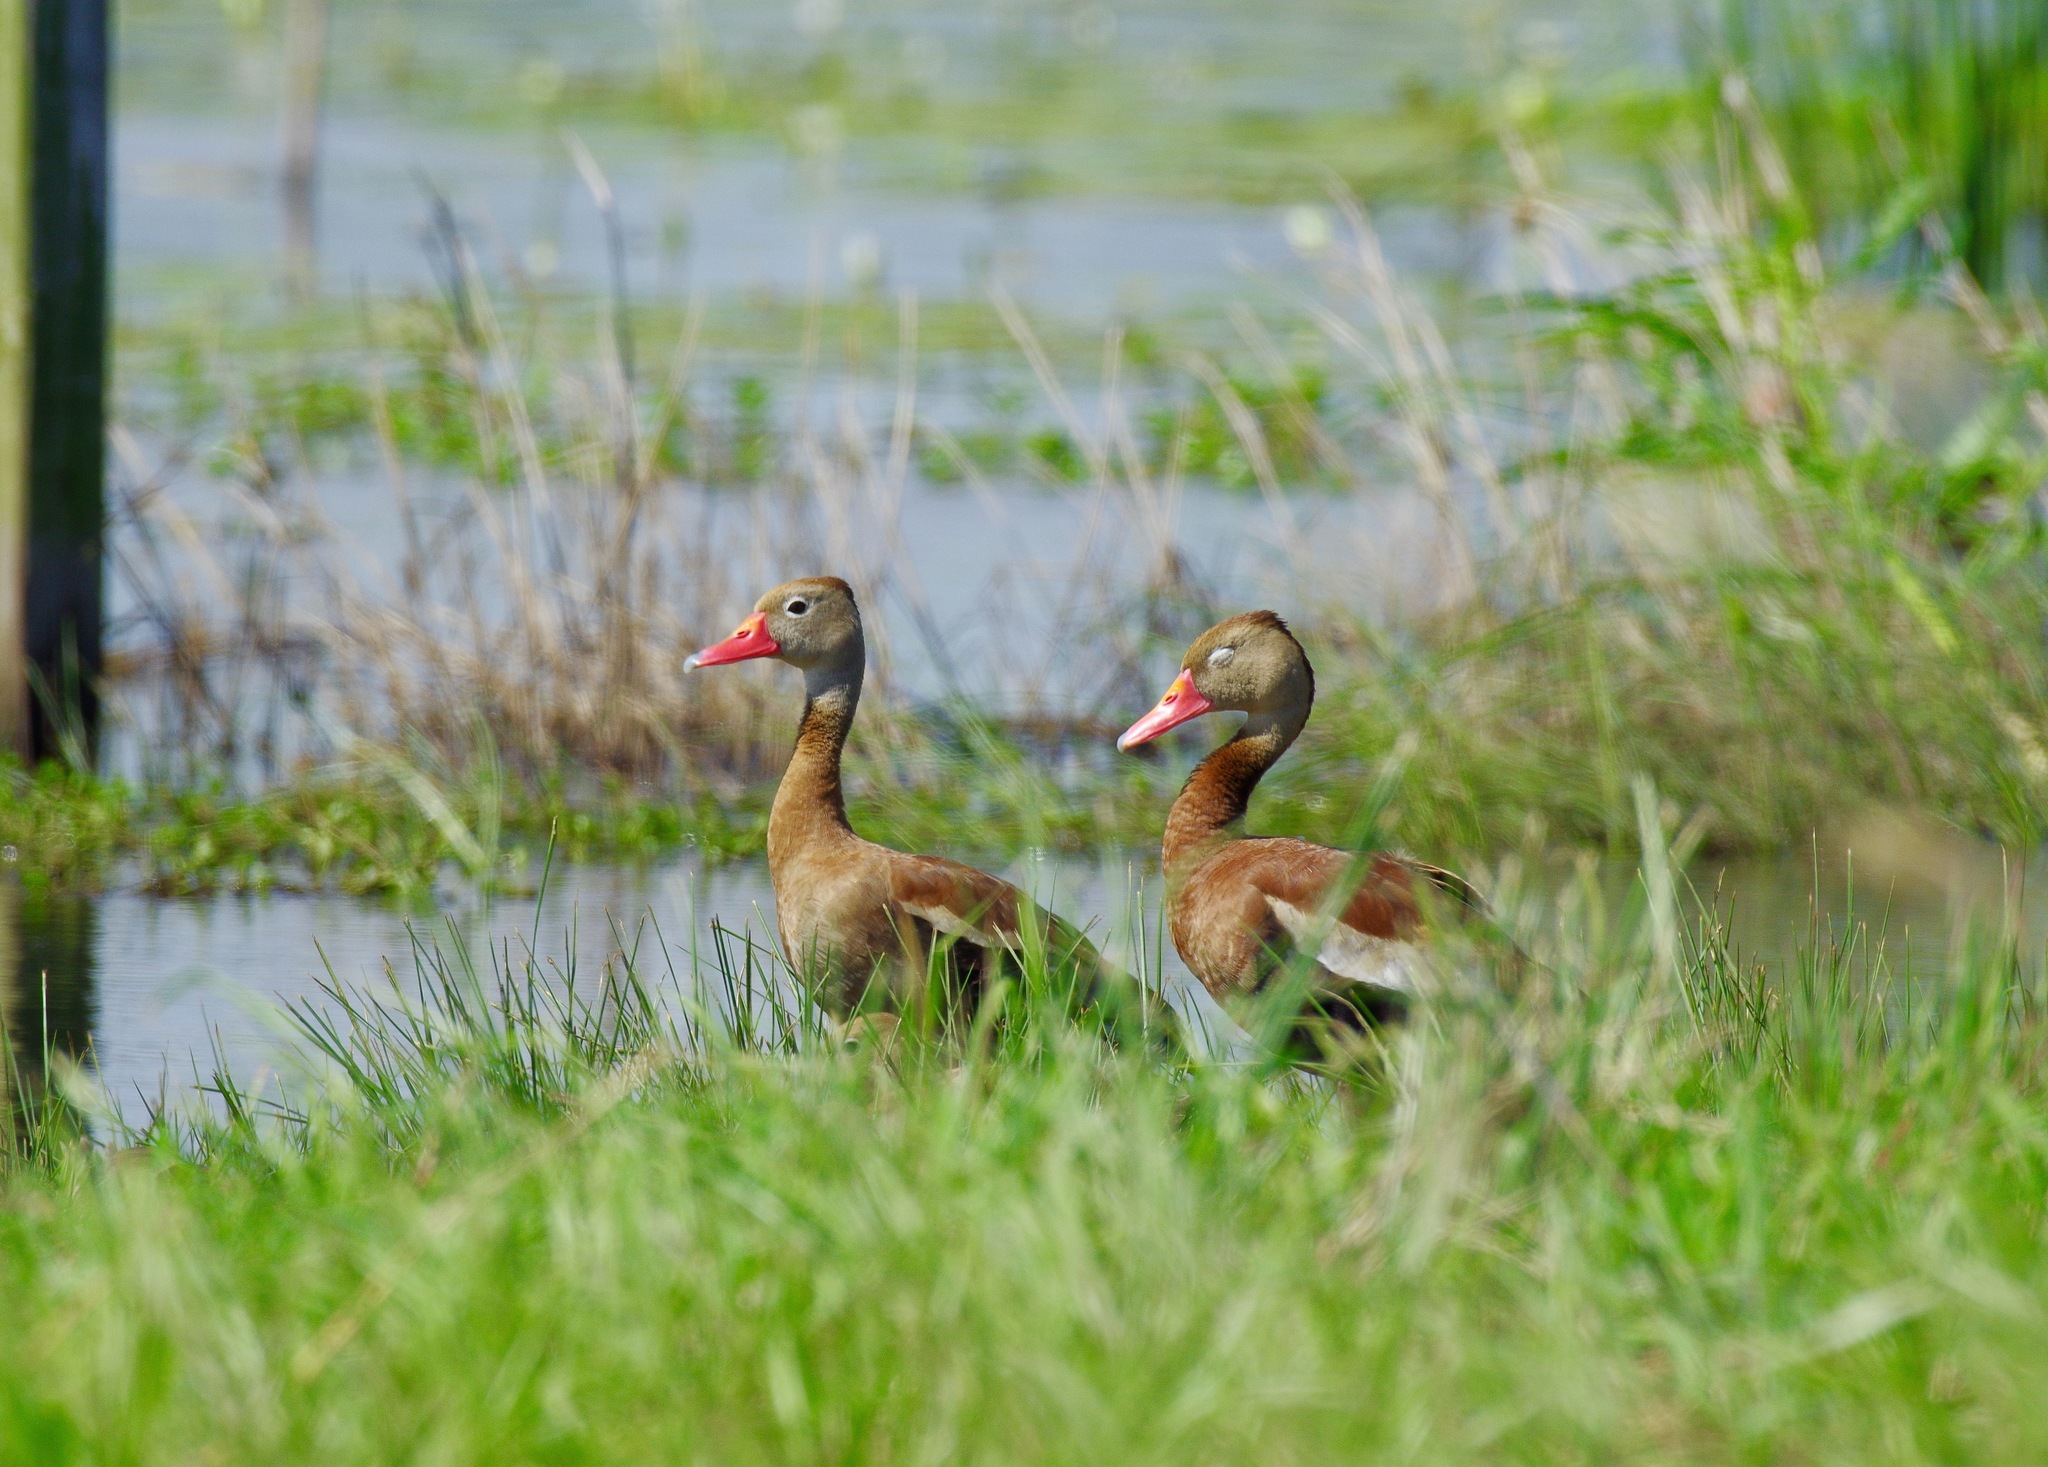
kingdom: Animalia
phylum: Chordata
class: Aves
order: Anseriformes
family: Anatidae
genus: Dendrocygna
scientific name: Dendrocygna autumnalis
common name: Black-bellied whistling duck
